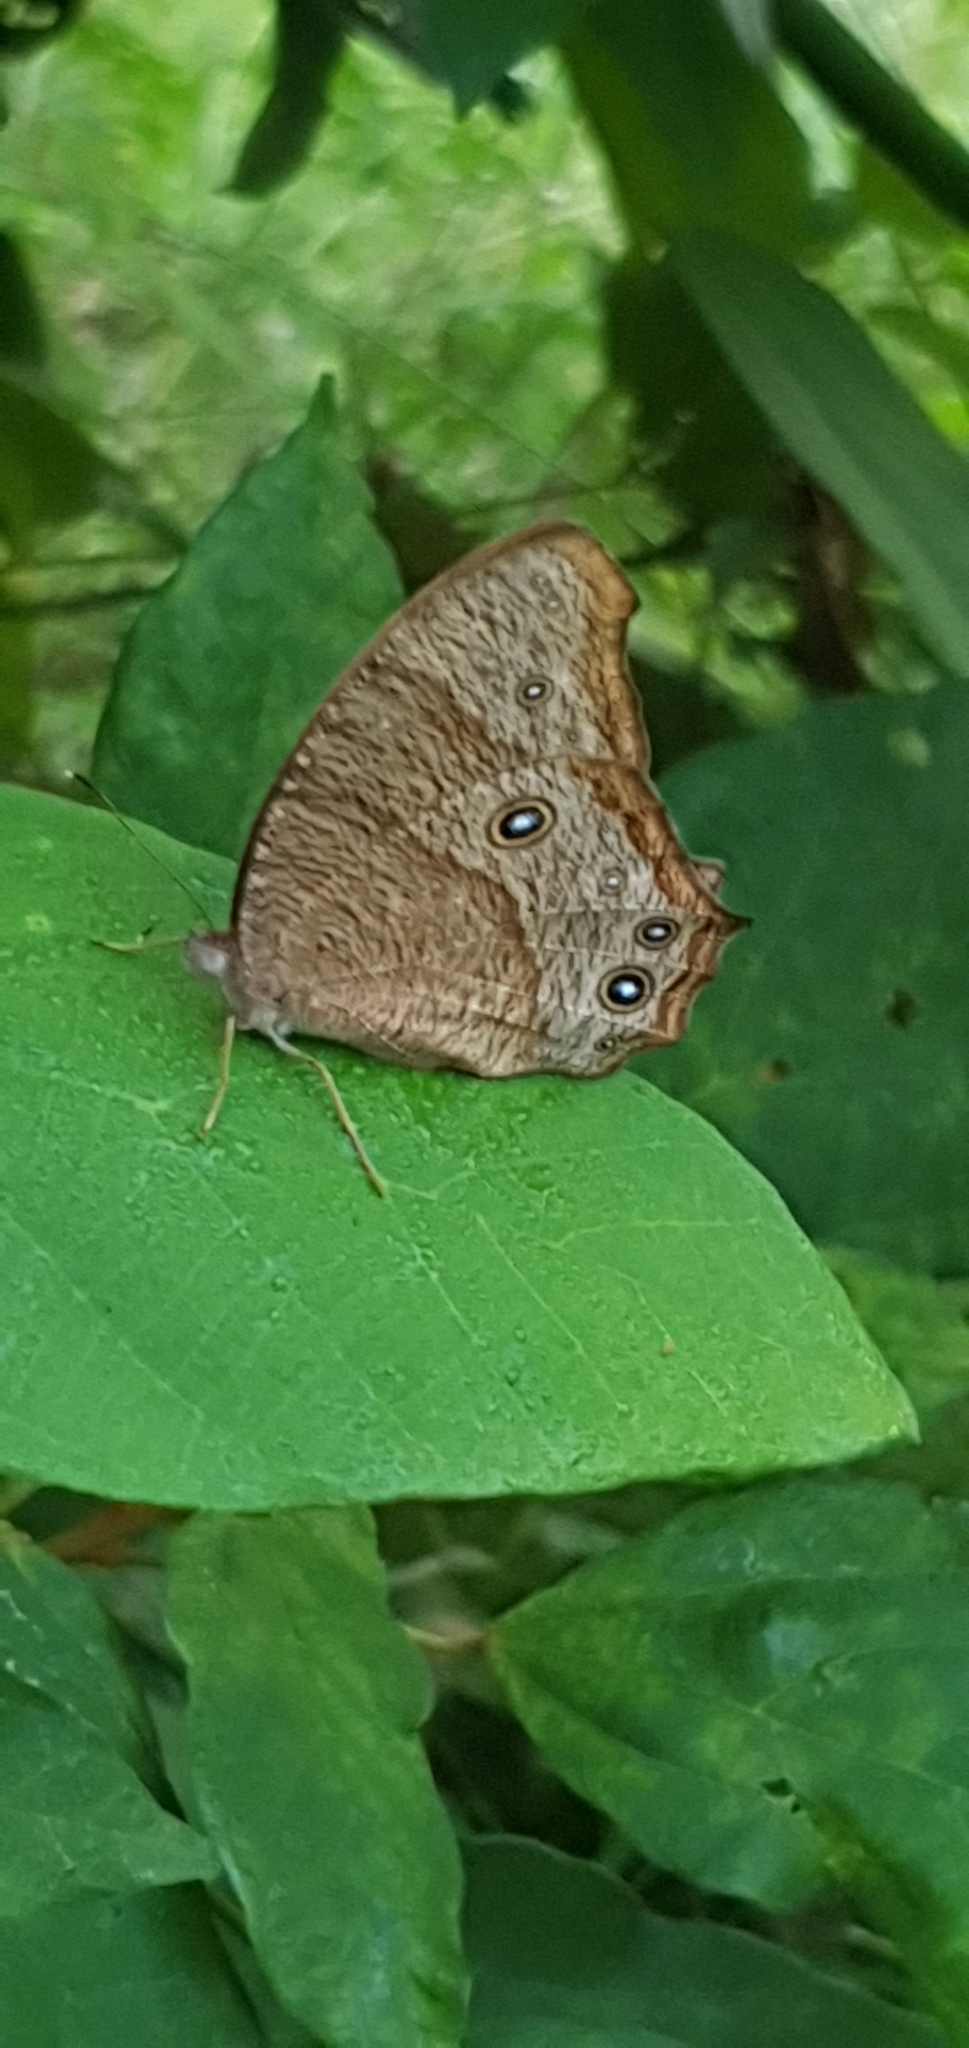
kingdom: Animalia
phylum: Arthropoda
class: Insecta
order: Lepidoptera
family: Nymphalidae
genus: Melanitis
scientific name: Melanitis leda
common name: Twilight brown
